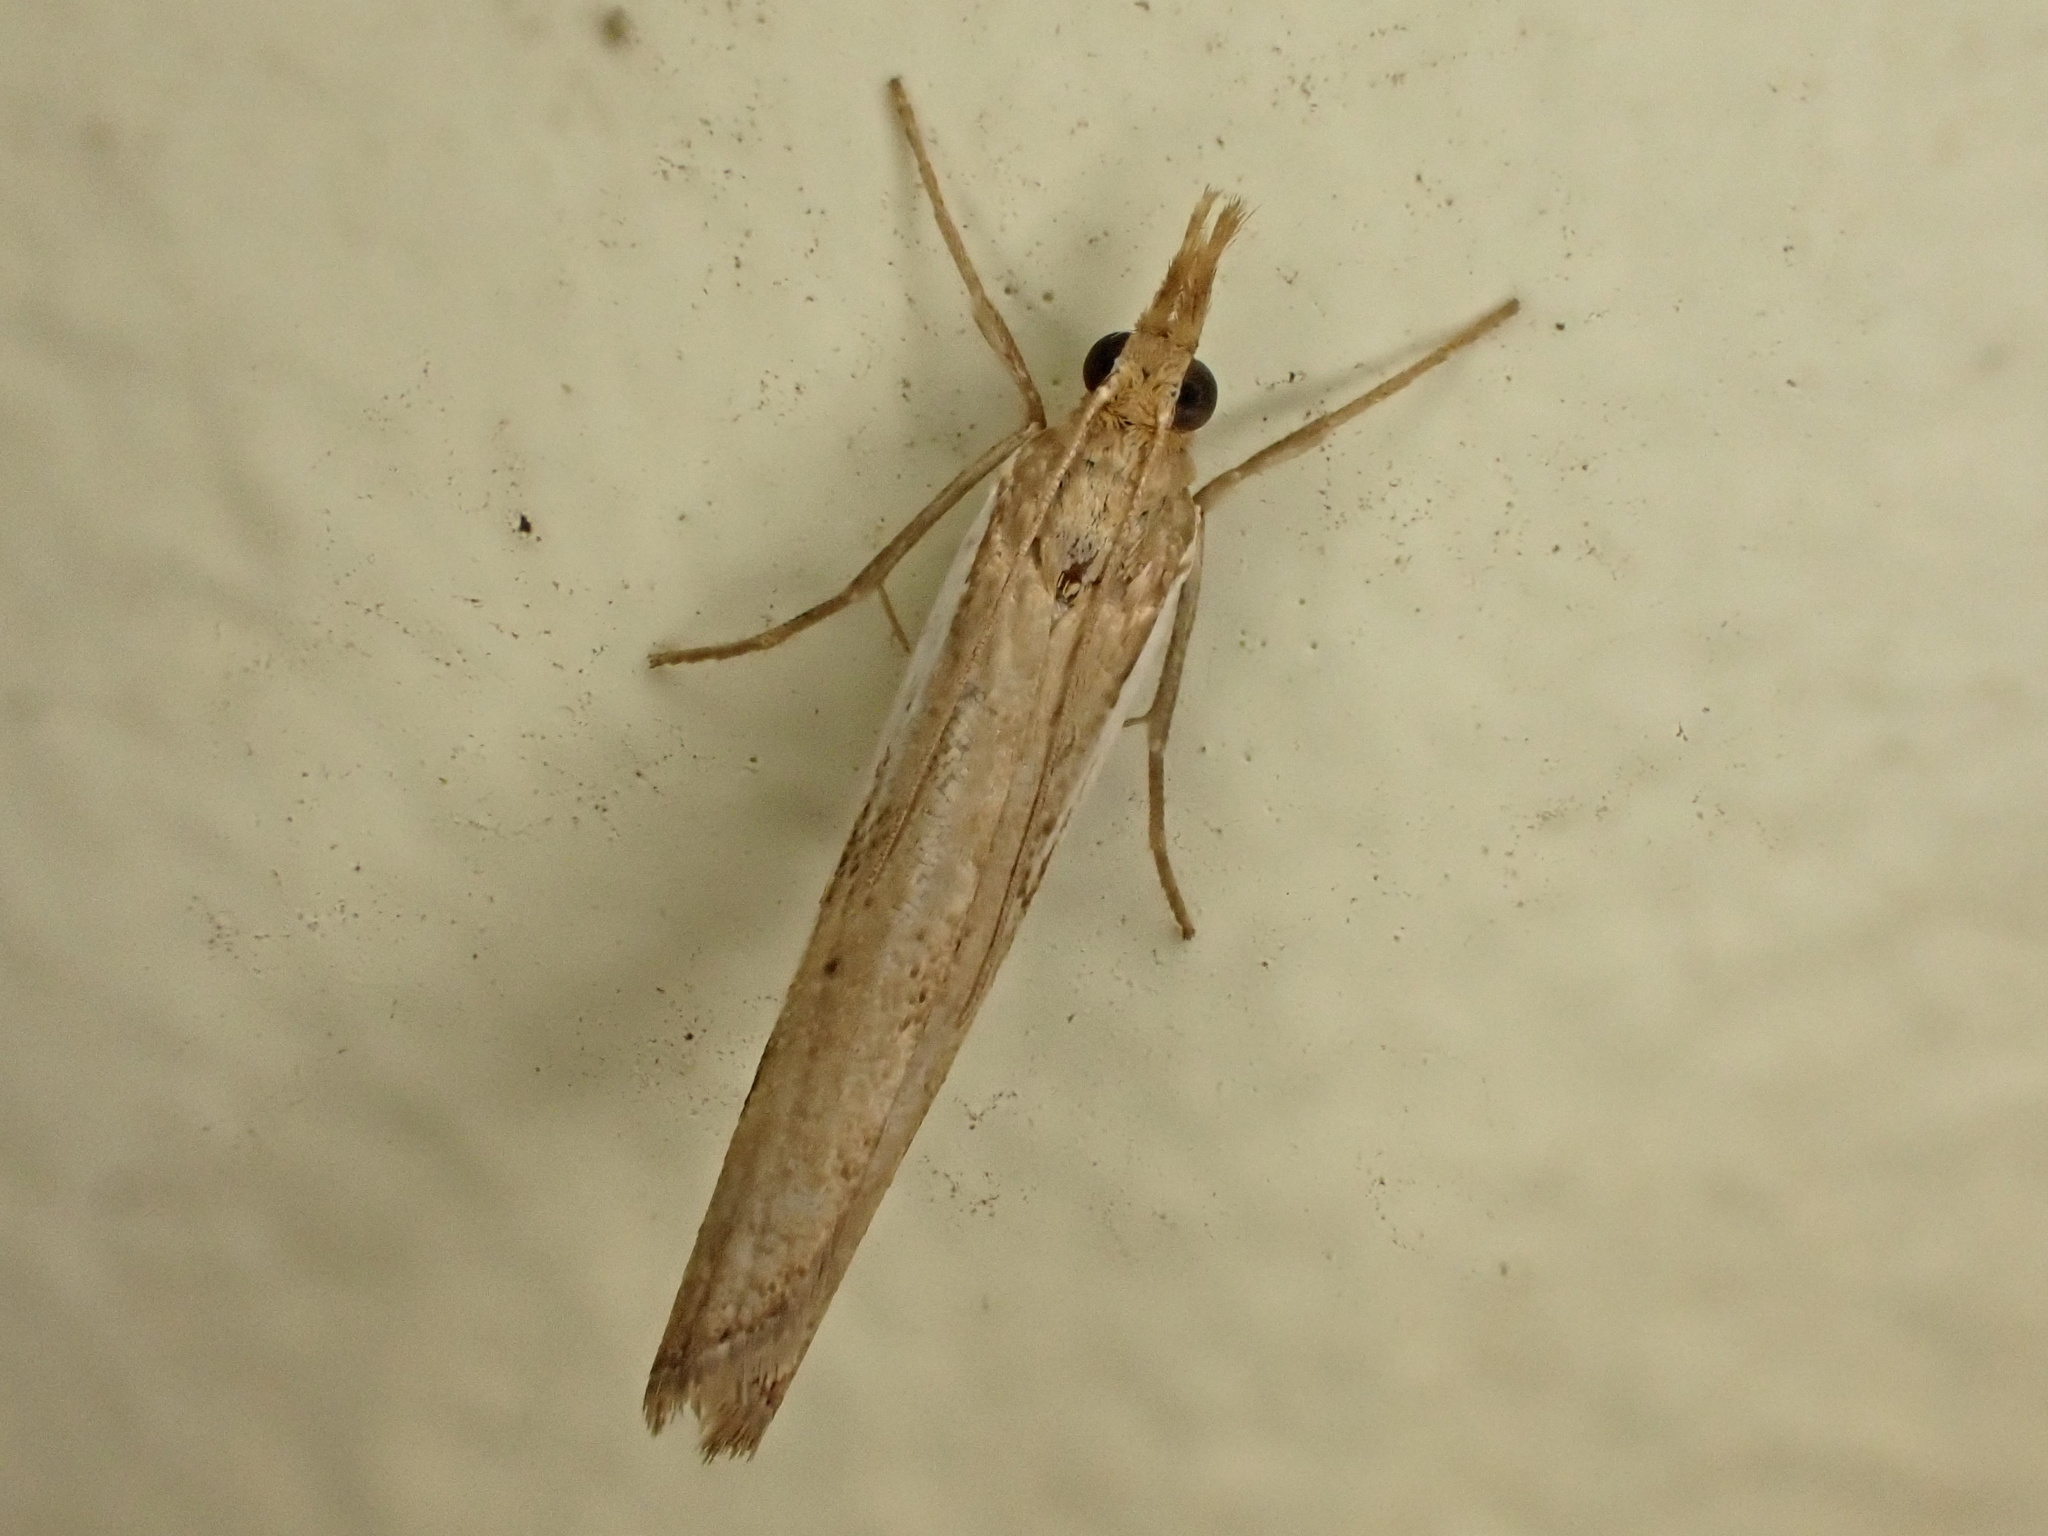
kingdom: Animalia
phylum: Arthropoda
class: Insecta
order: Lepidoptera
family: Crambidae
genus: Orocrambus
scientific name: Orocrambus flexuosellus
